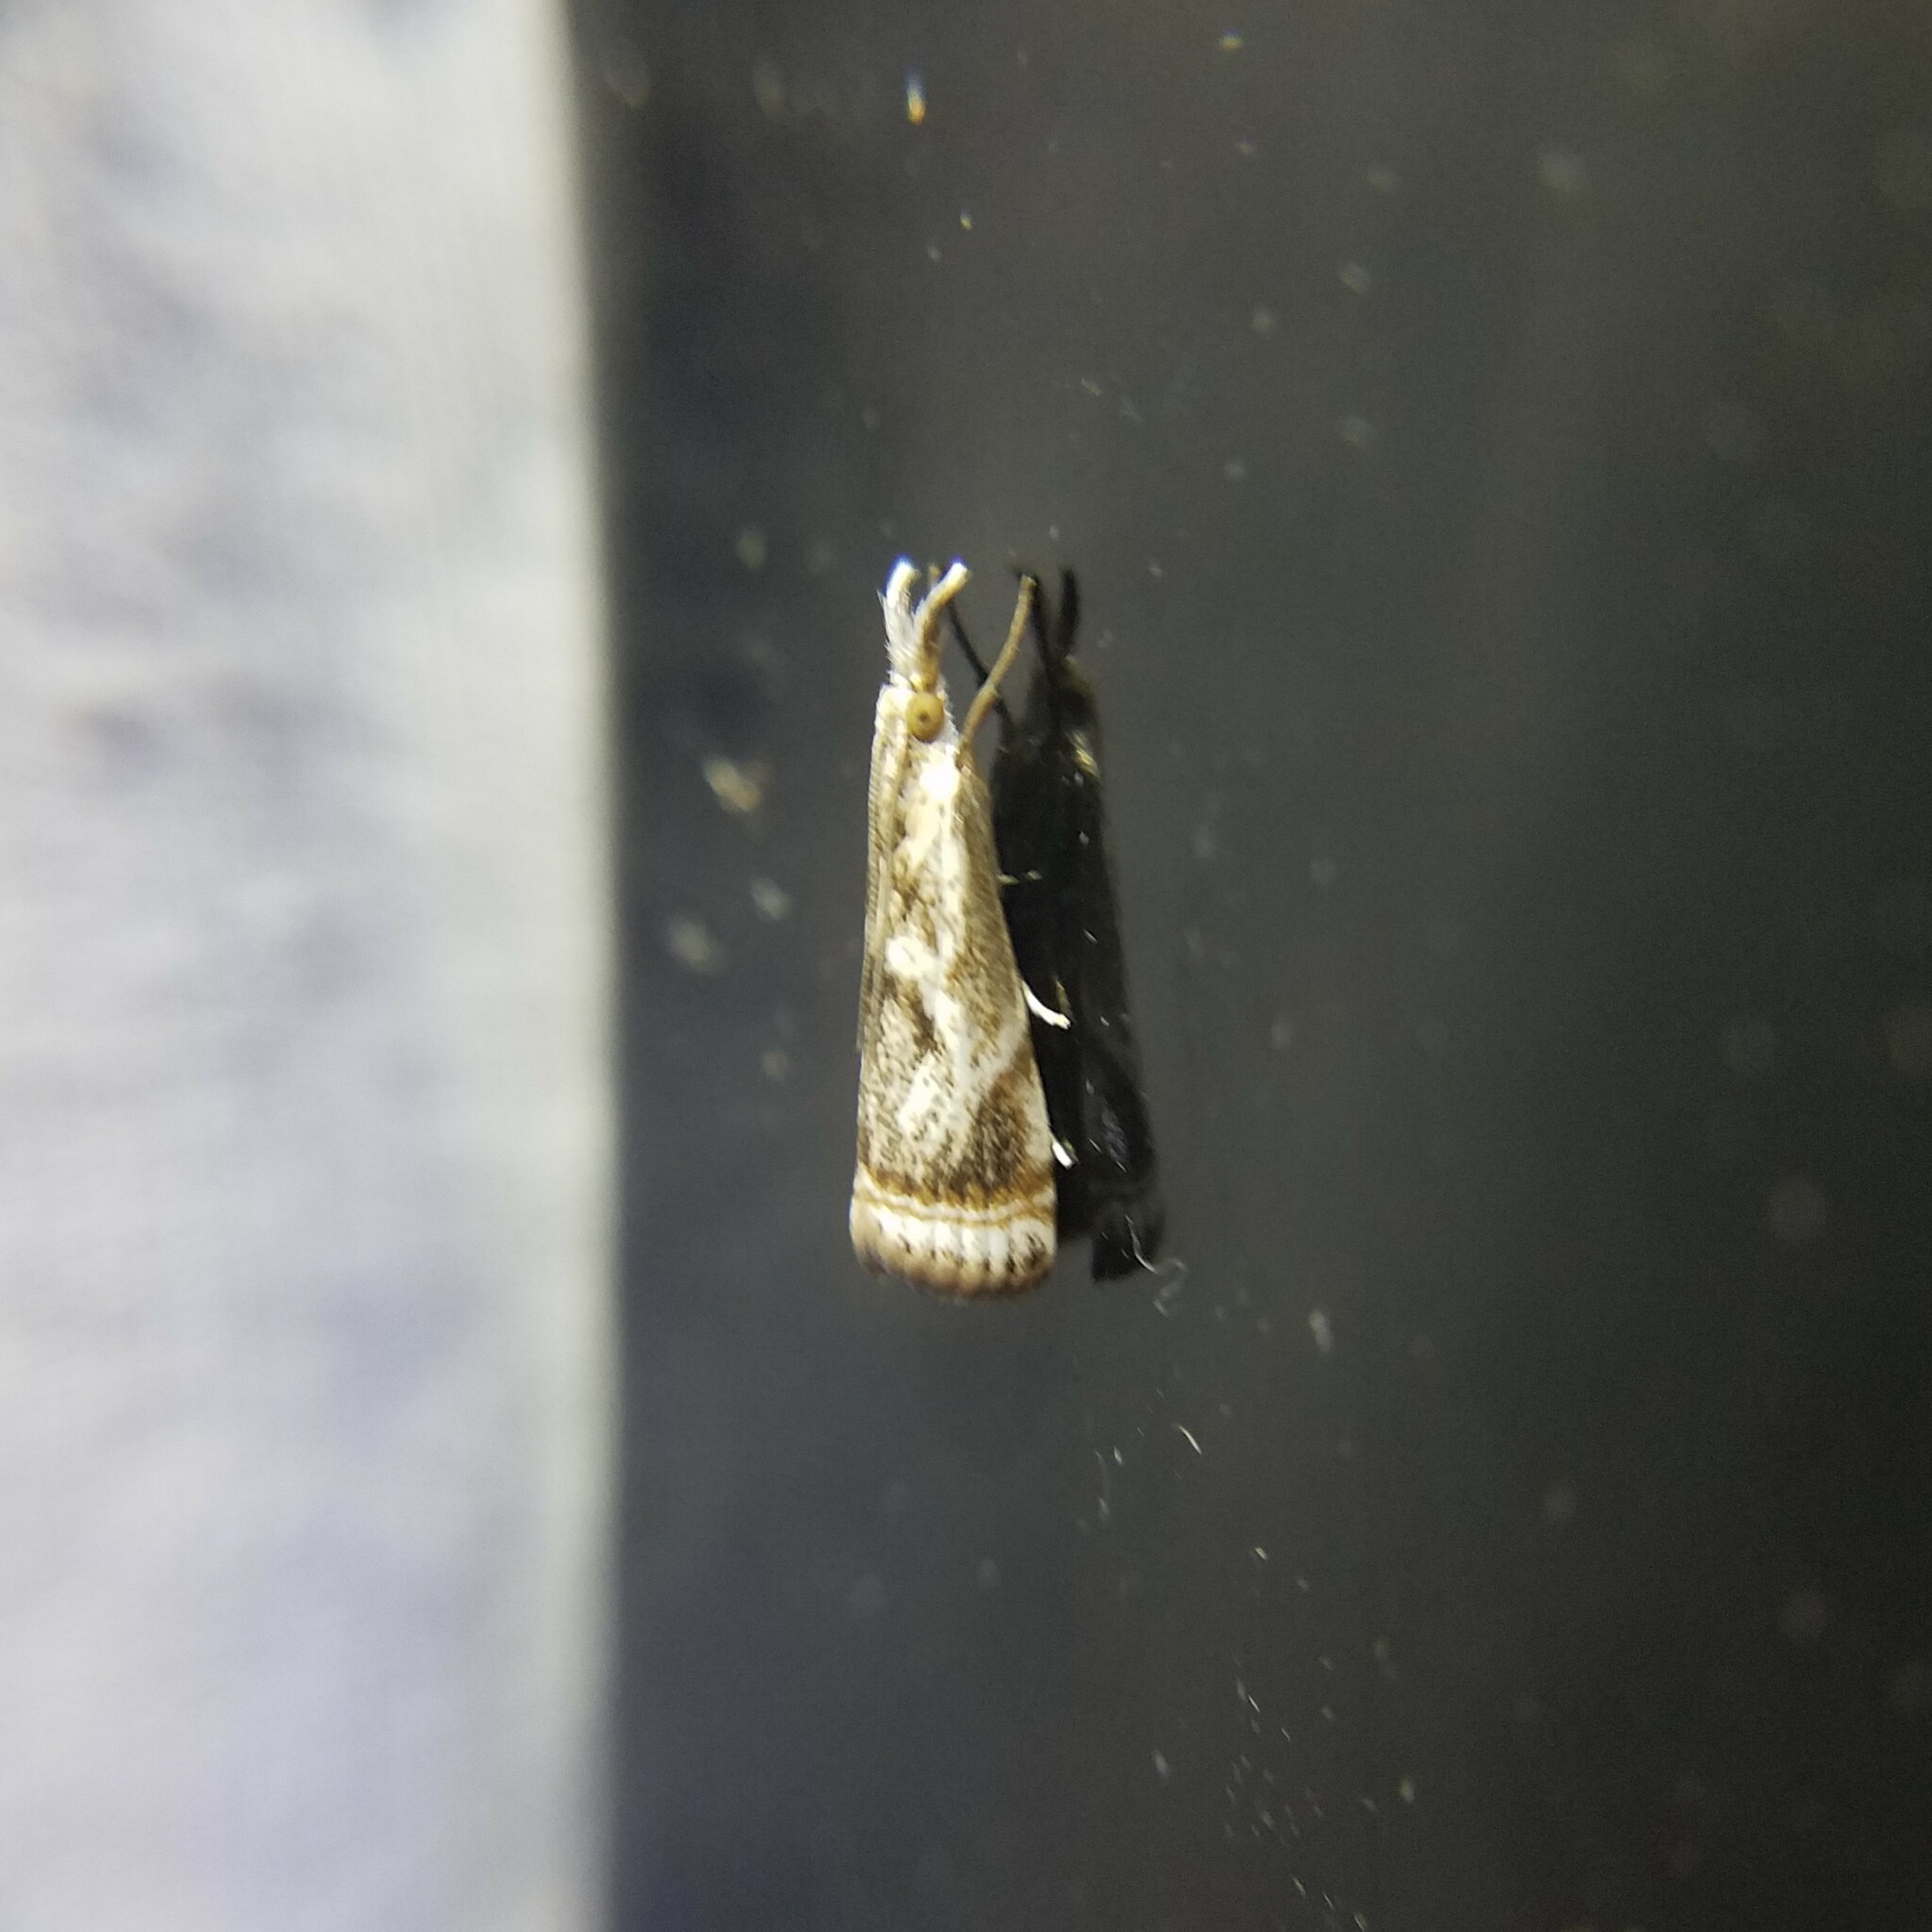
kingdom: Animalia
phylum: Arthropoda
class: Insecta
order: Lepidoptera
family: Crambidae
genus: Microcrambus
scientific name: Microcrambus elegans
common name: Elegant grass-veneer
